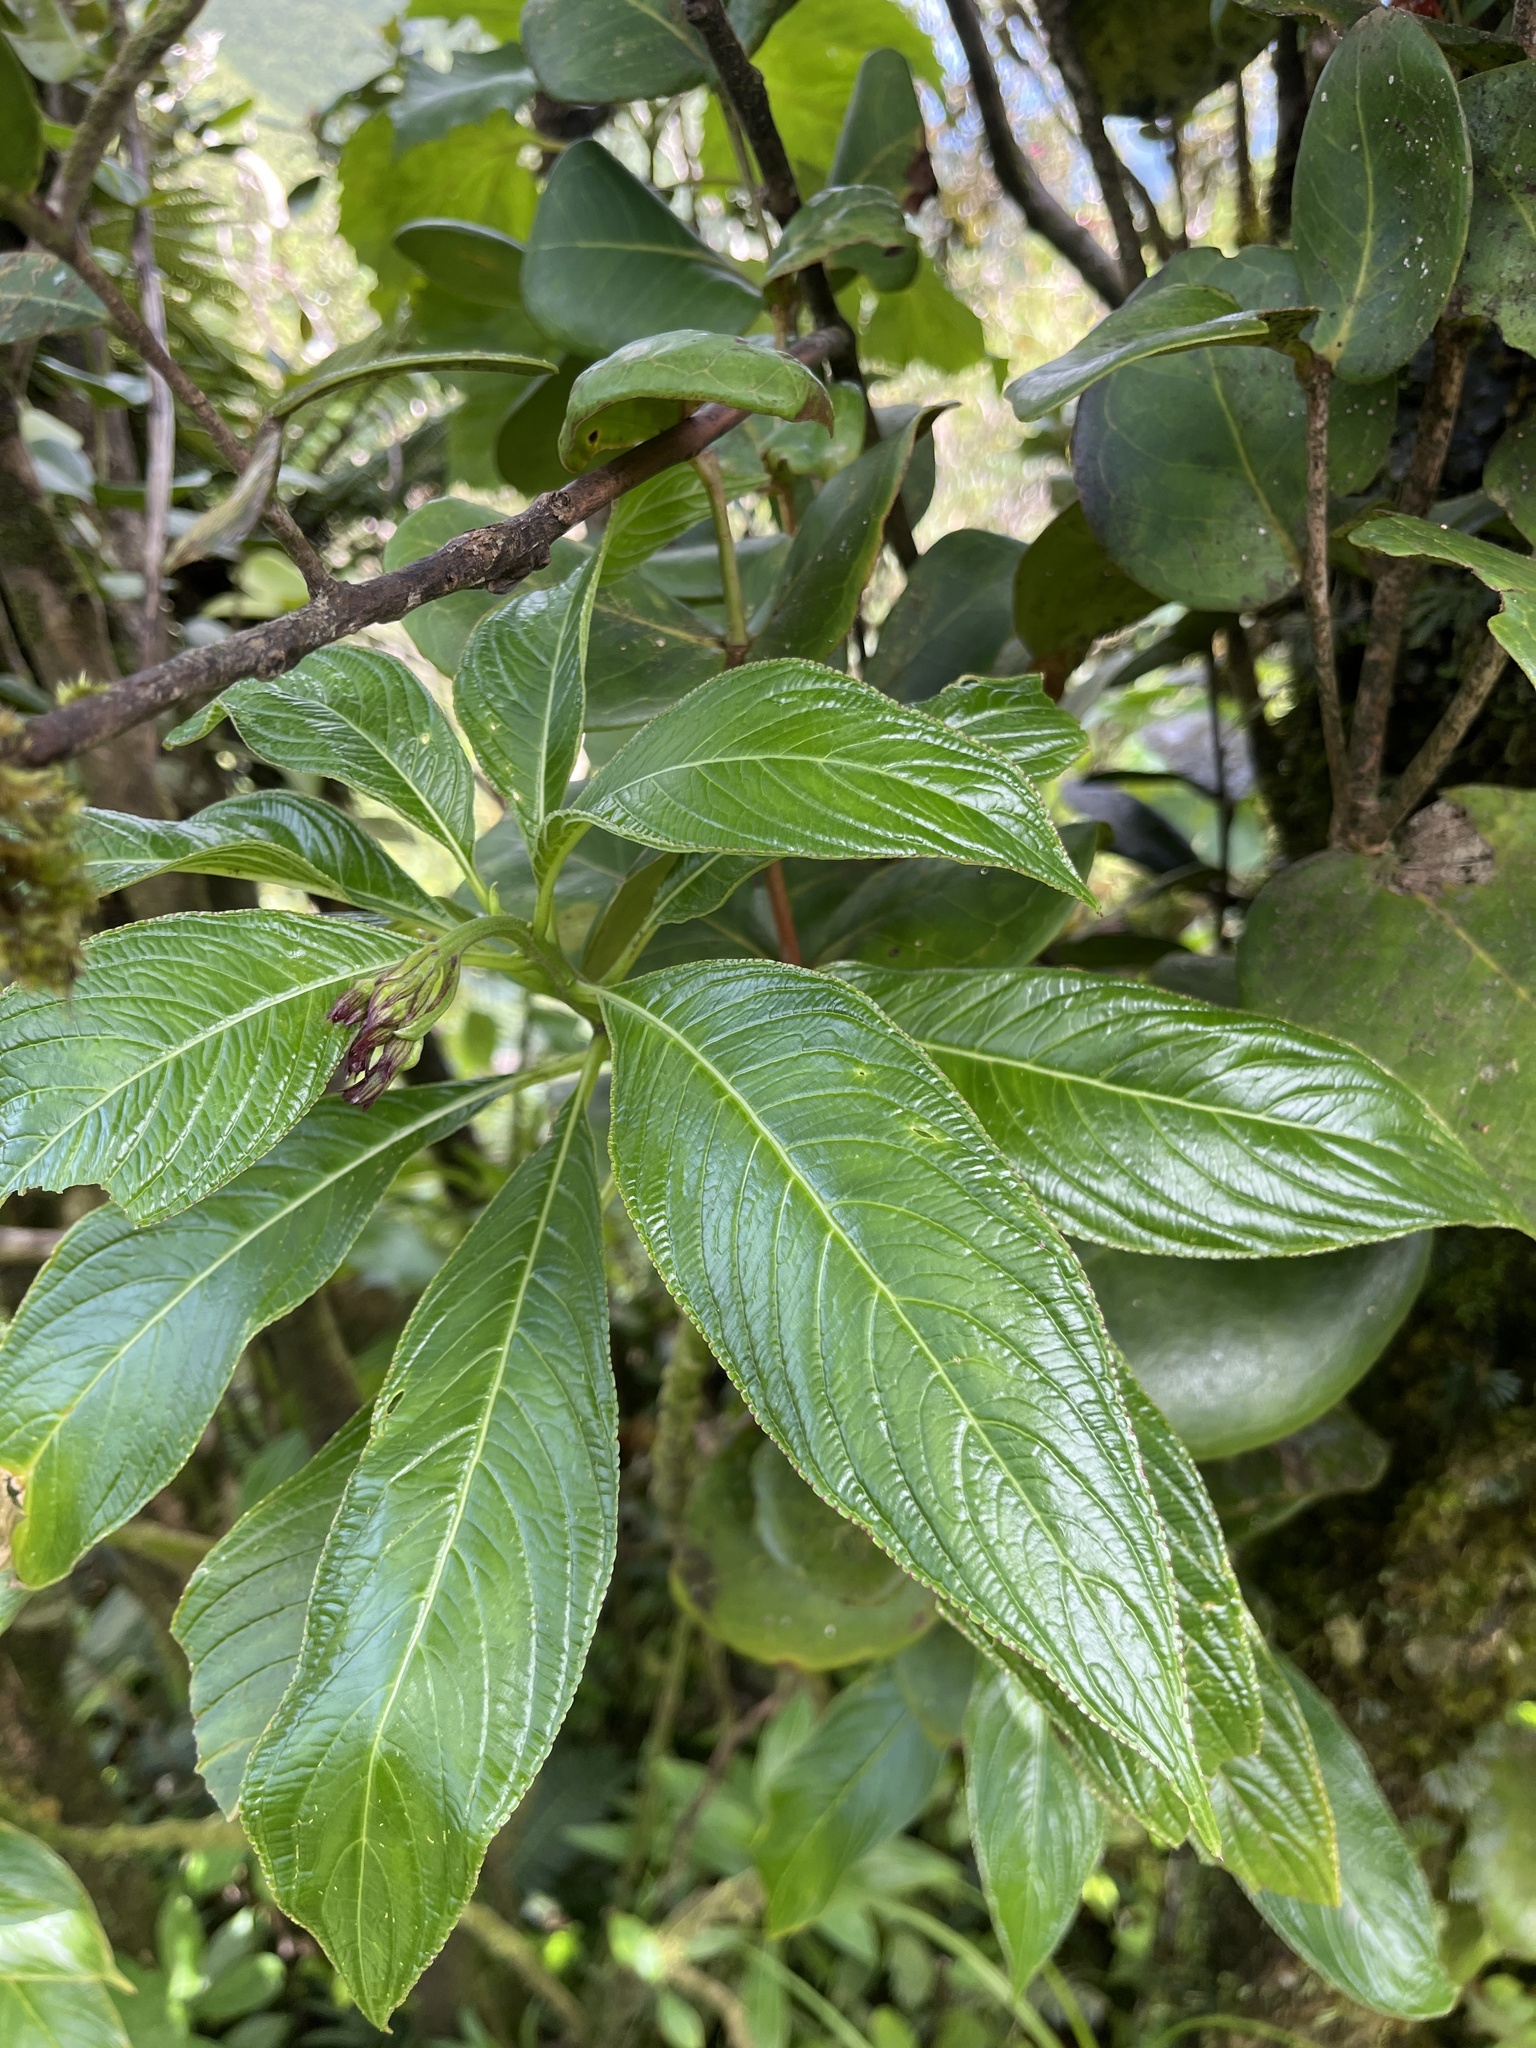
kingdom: Plantae
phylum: Tracheophyta
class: Magnoliopsida
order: Asterales
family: Campanulaceae
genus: Lobelia
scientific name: Lobelia portoricensis
